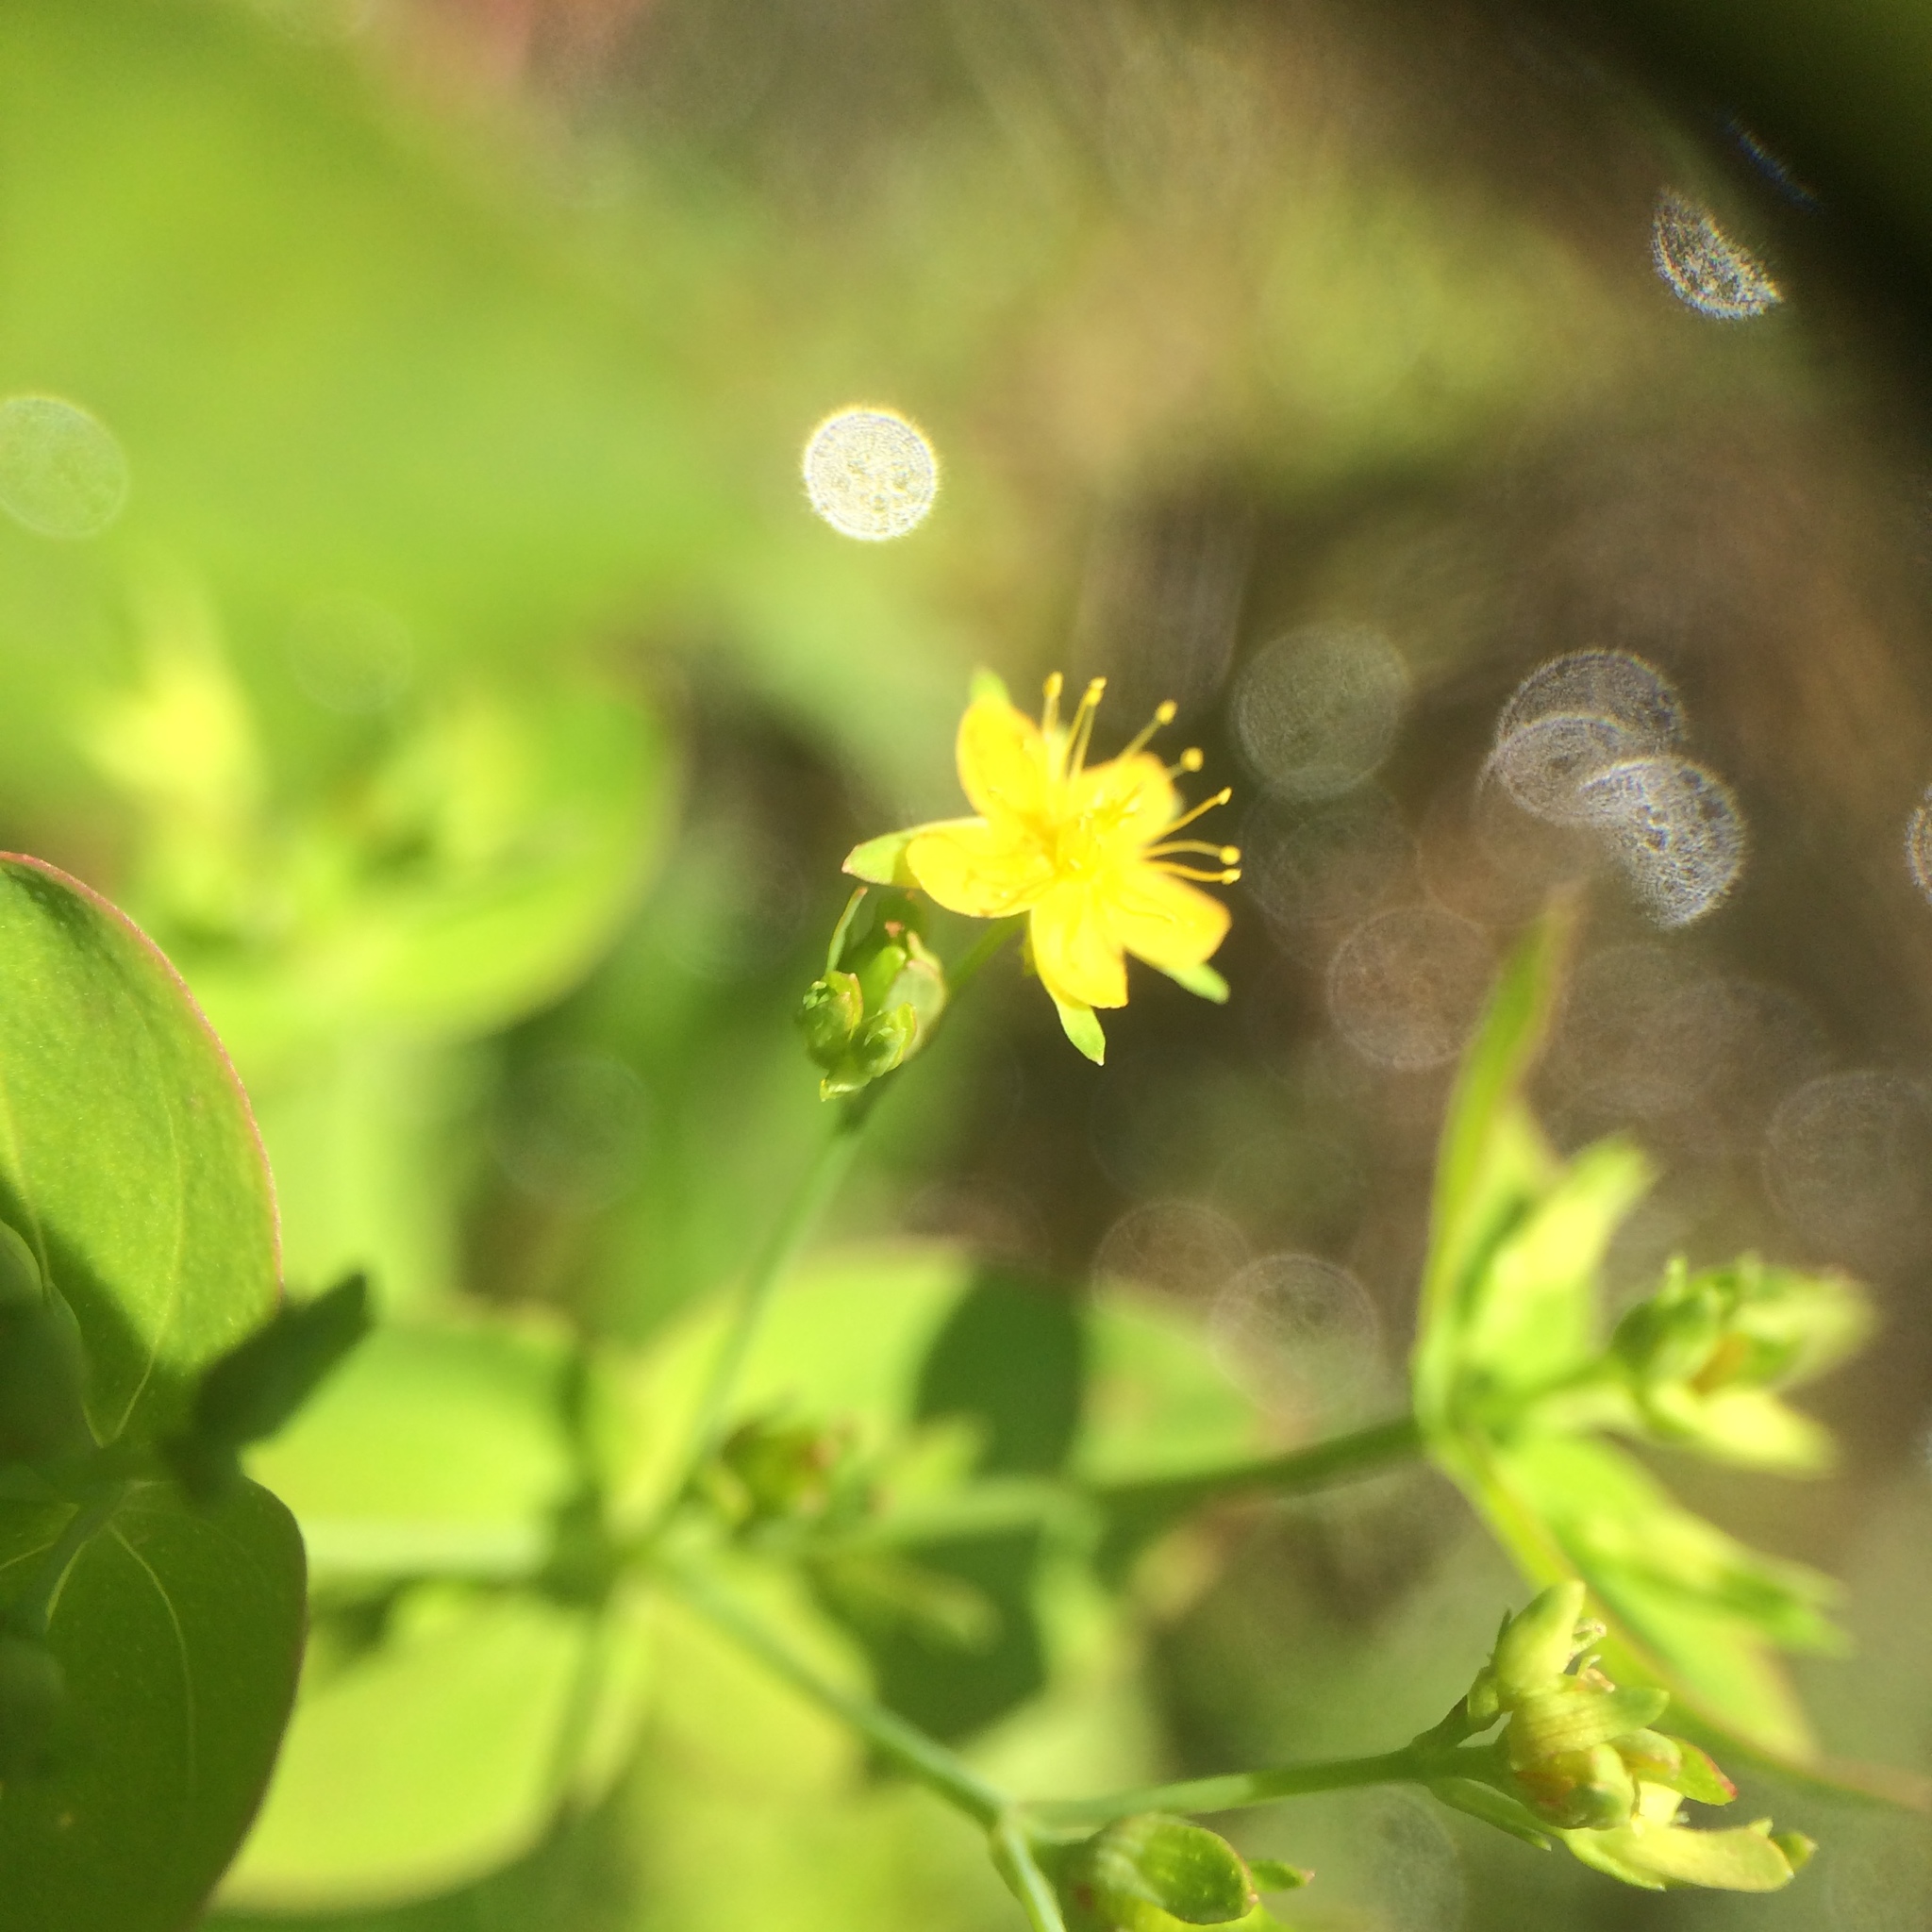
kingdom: Plantae
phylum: Tracheophyta
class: Magnoliopsida
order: Malpighiales
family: Hypericaceae
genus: Hypericum
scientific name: Hypericum mutilum
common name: Dwarf st. john's-wort
